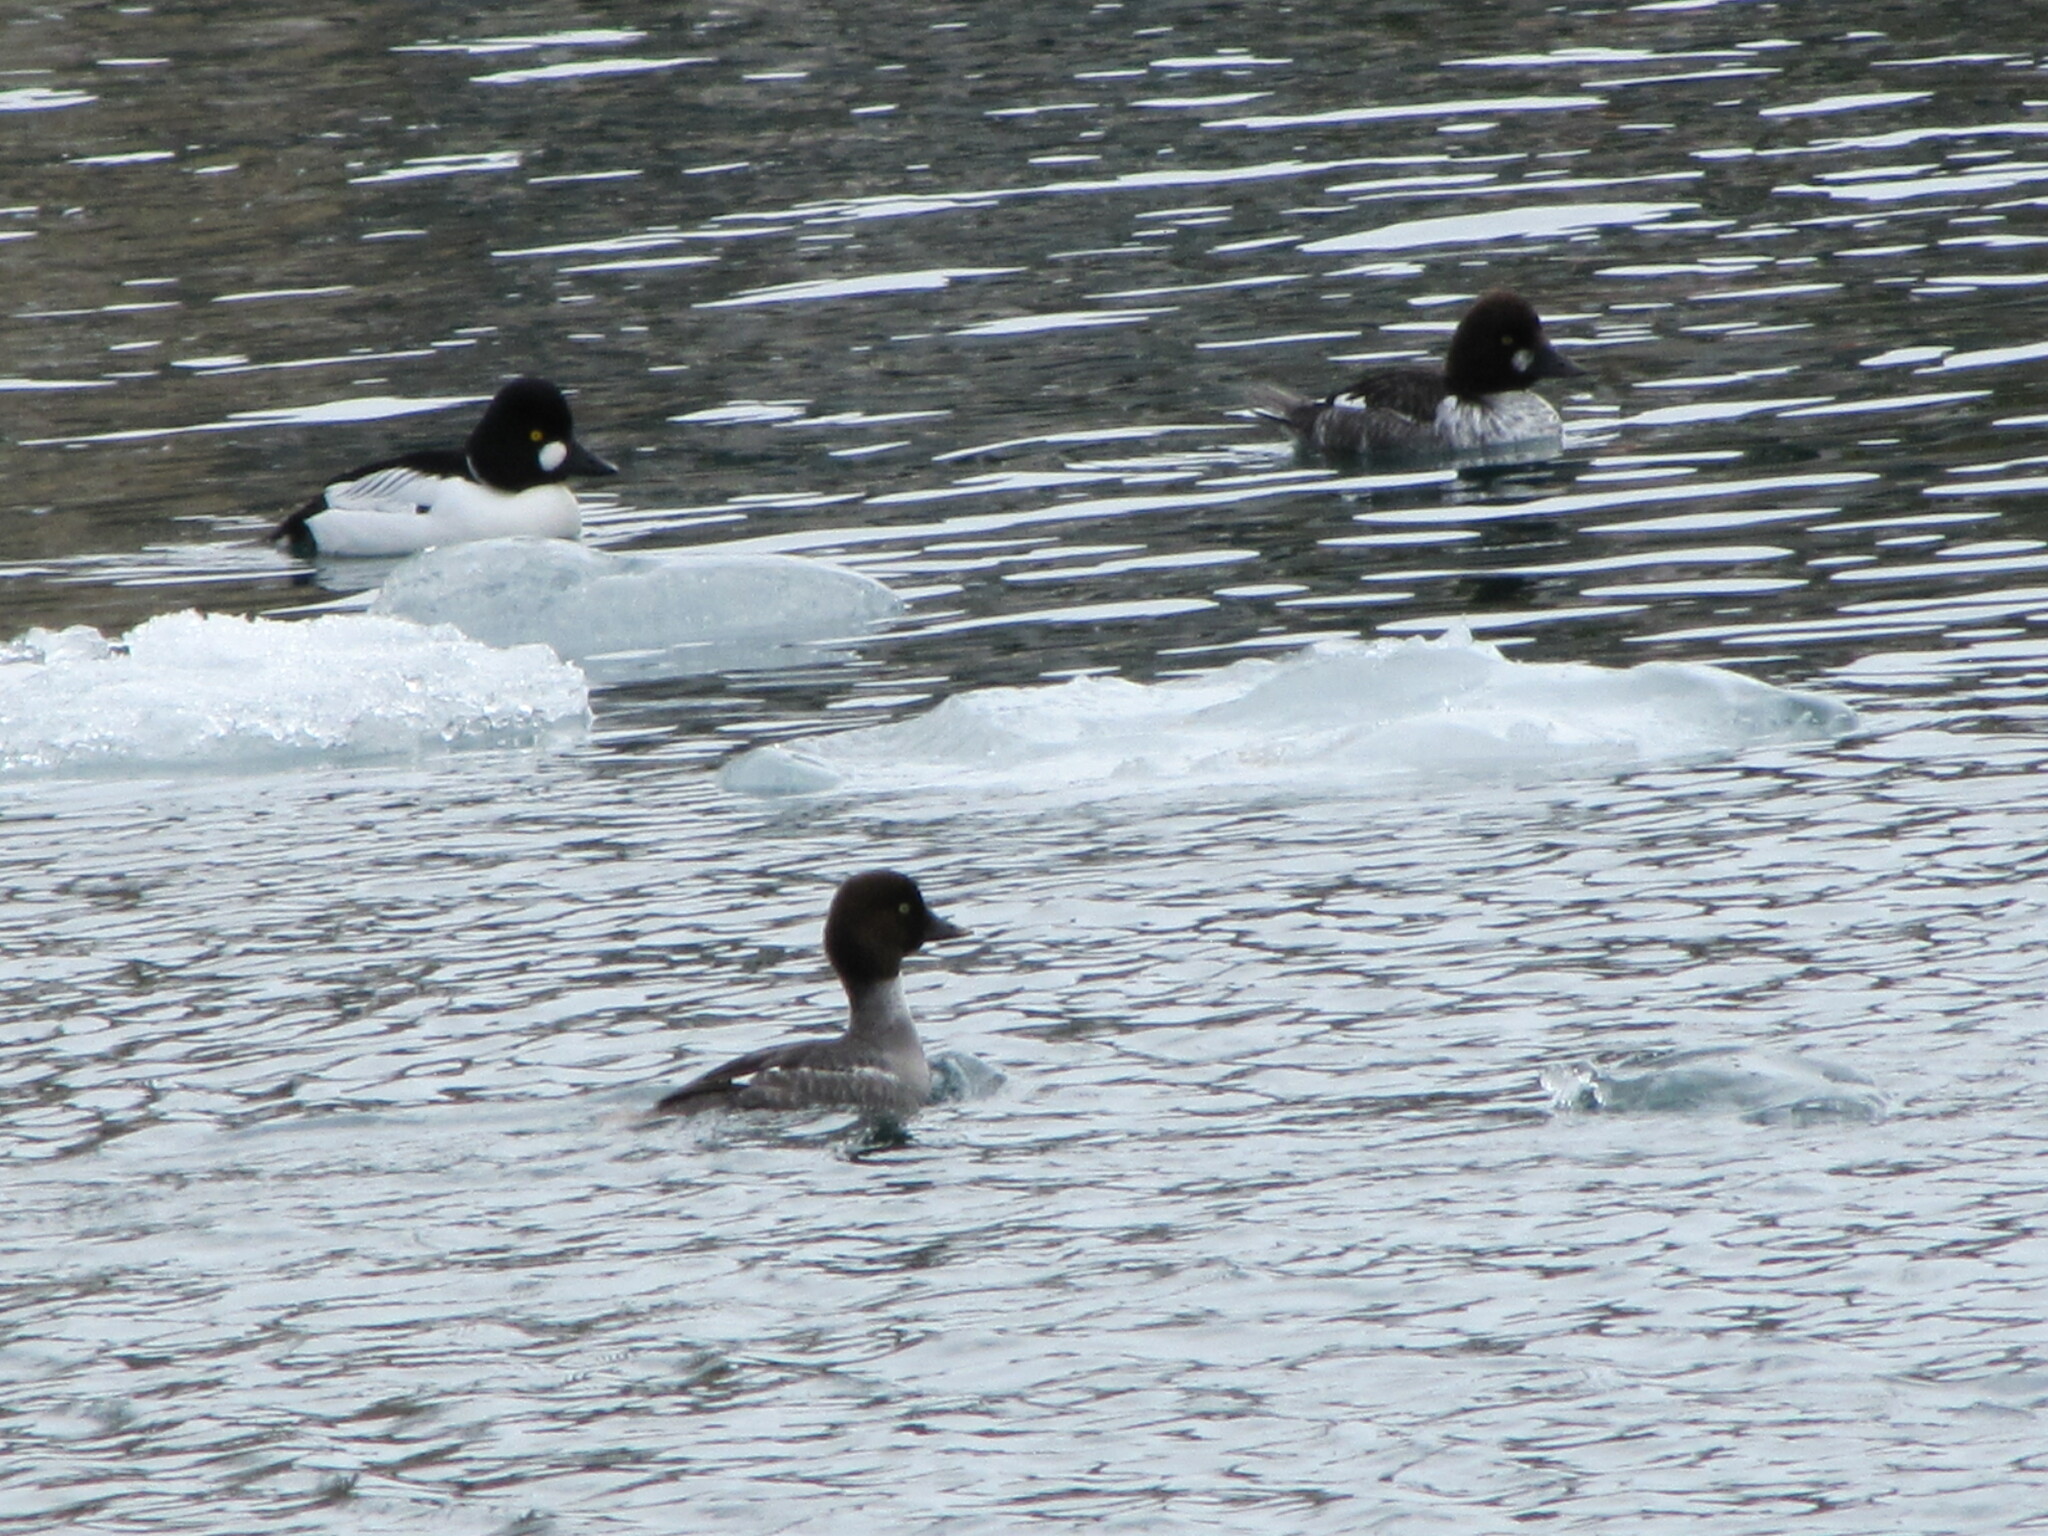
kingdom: Animalia
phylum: Chordata
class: Aves
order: Anseriformes
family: Anatidae
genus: Bucephala
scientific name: Bucephala clangula
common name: Common goldeneye
